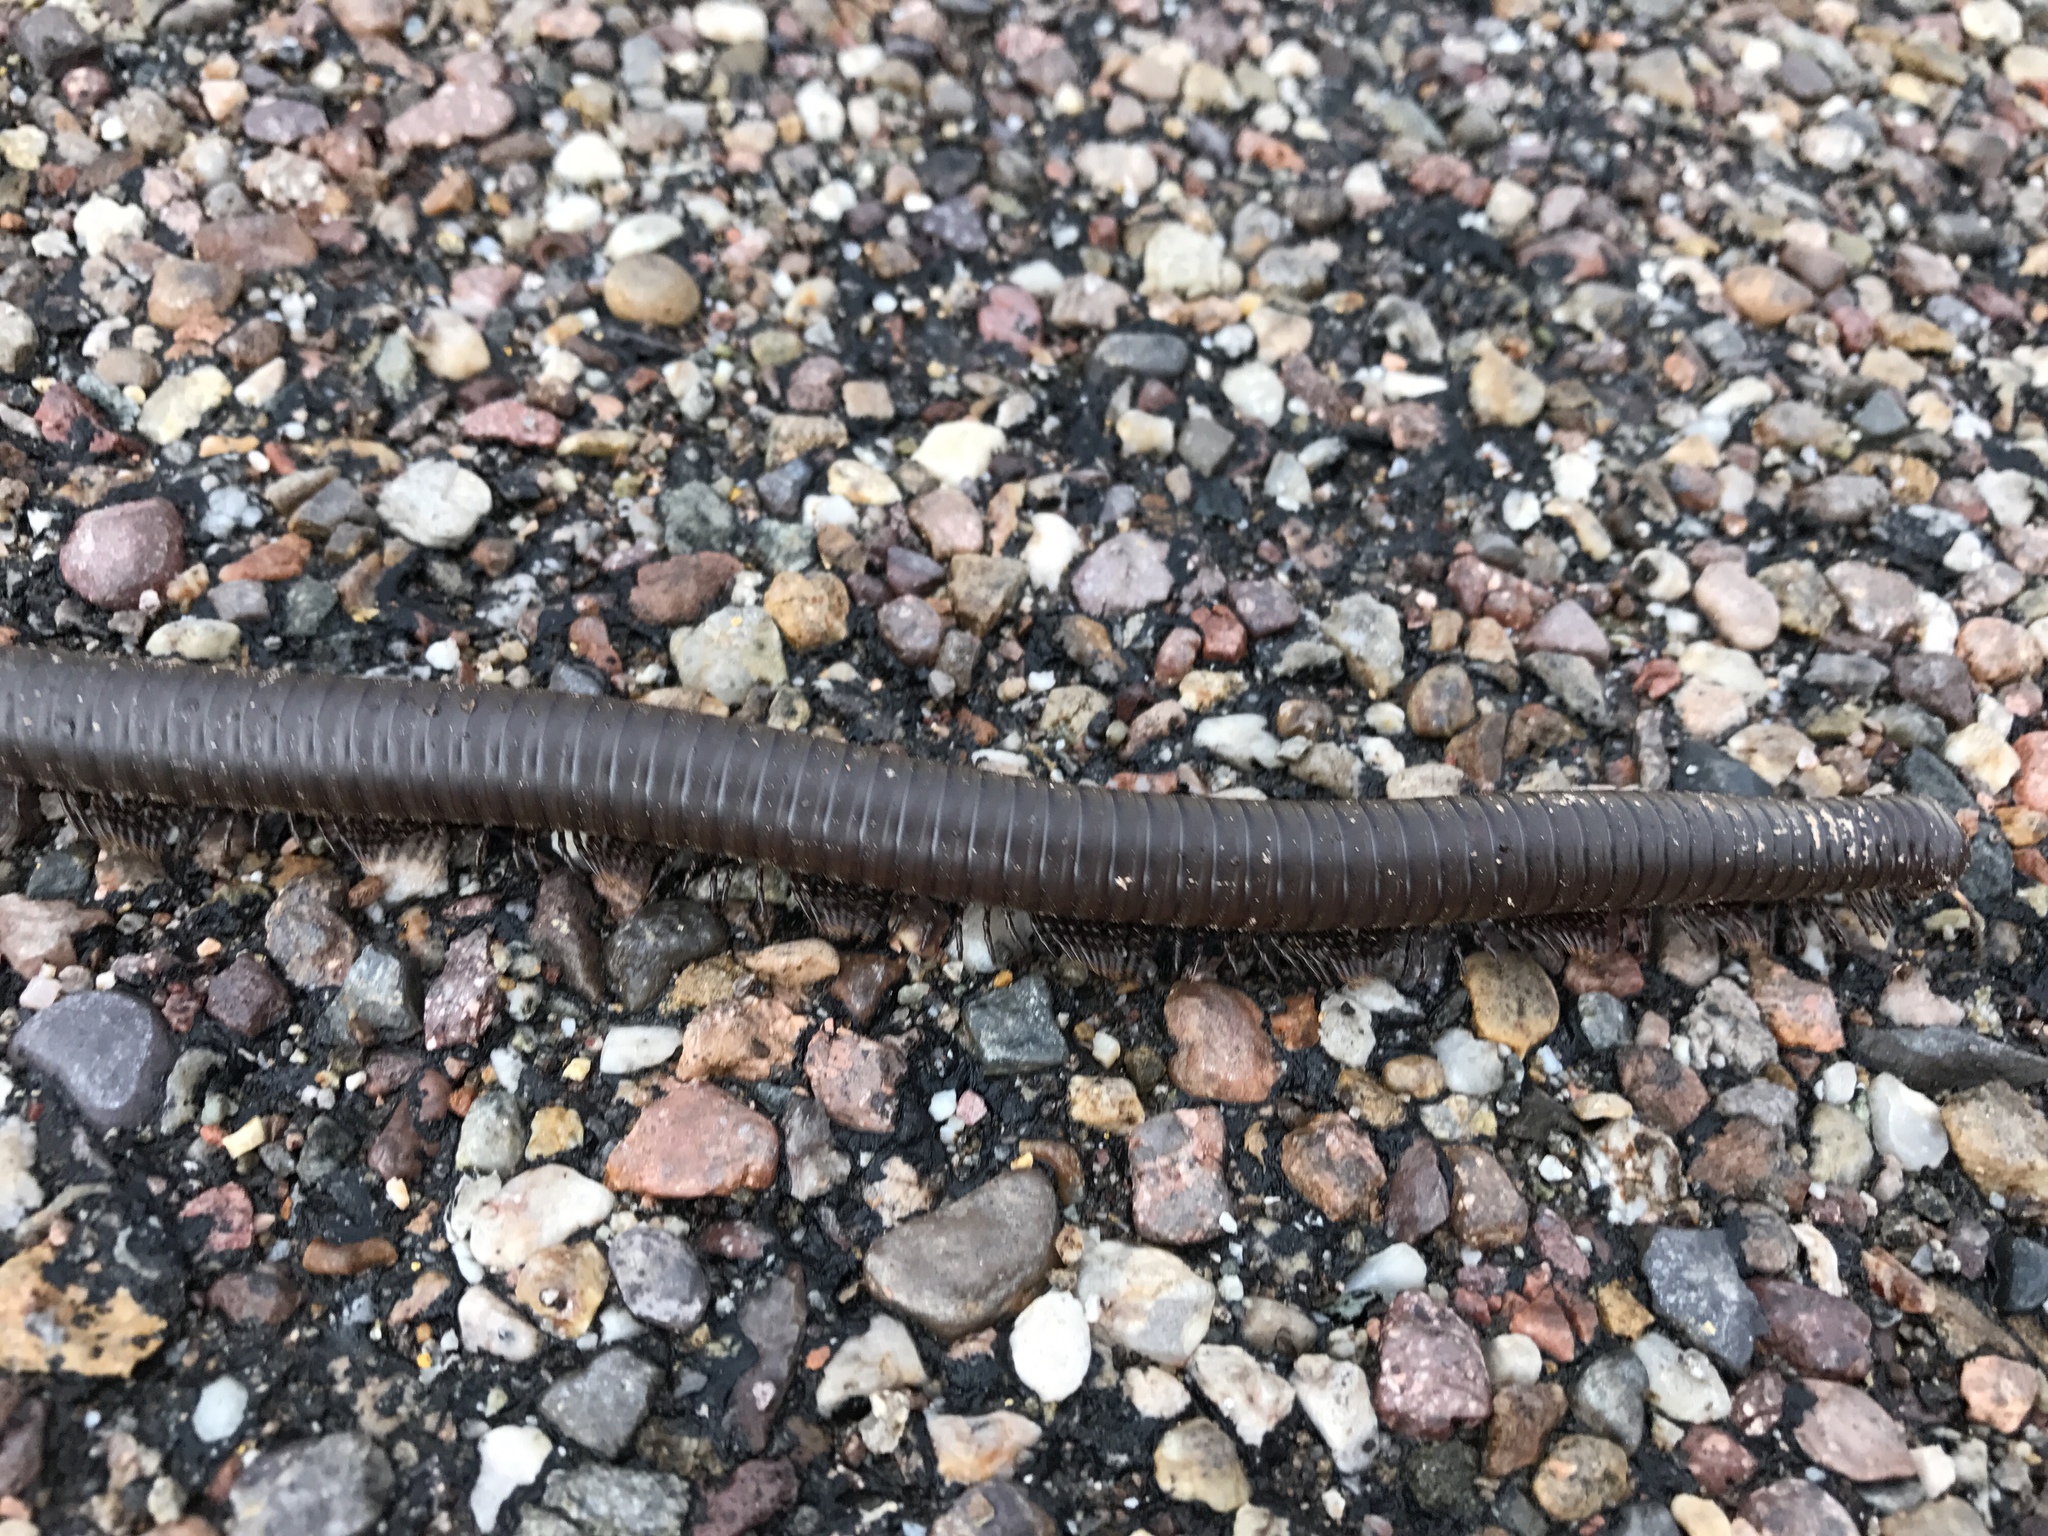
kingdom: Animalia
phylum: Arthropoda
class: Diplopoda
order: Spirostreptida
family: Spirostreptidae
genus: Orthoporus
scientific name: Orthoporus ornatus
